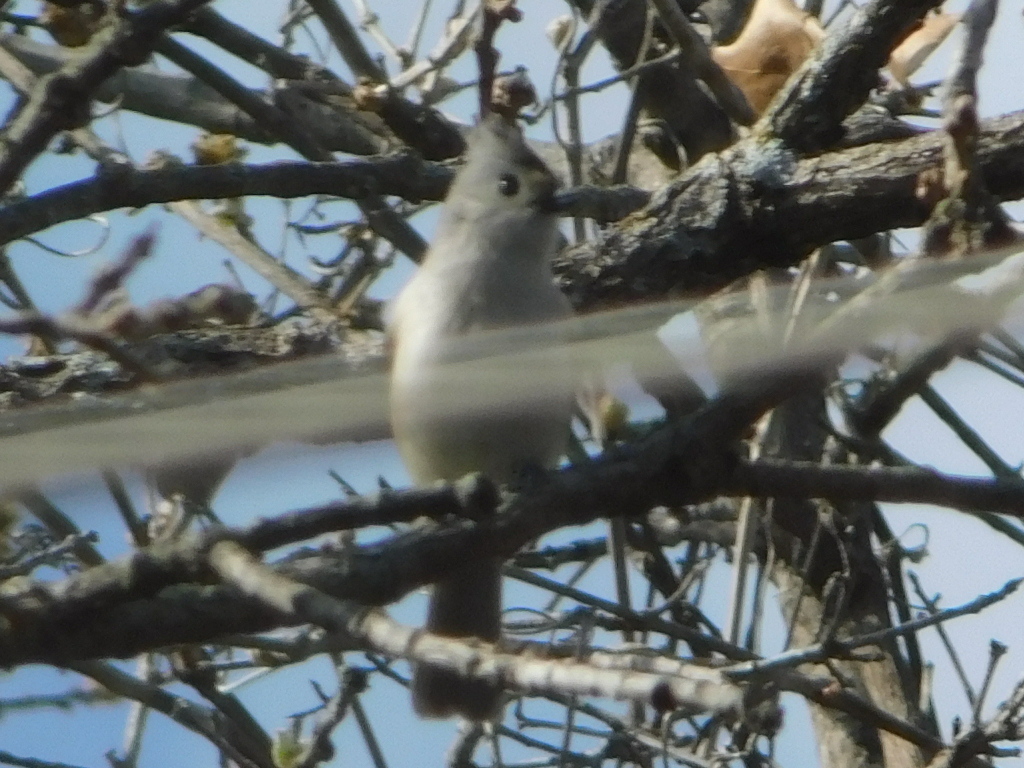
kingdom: Animalia
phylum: Chordata
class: Aves
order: Passeriformes
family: Paridae
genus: Baeolophus
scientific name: Baeolophus
